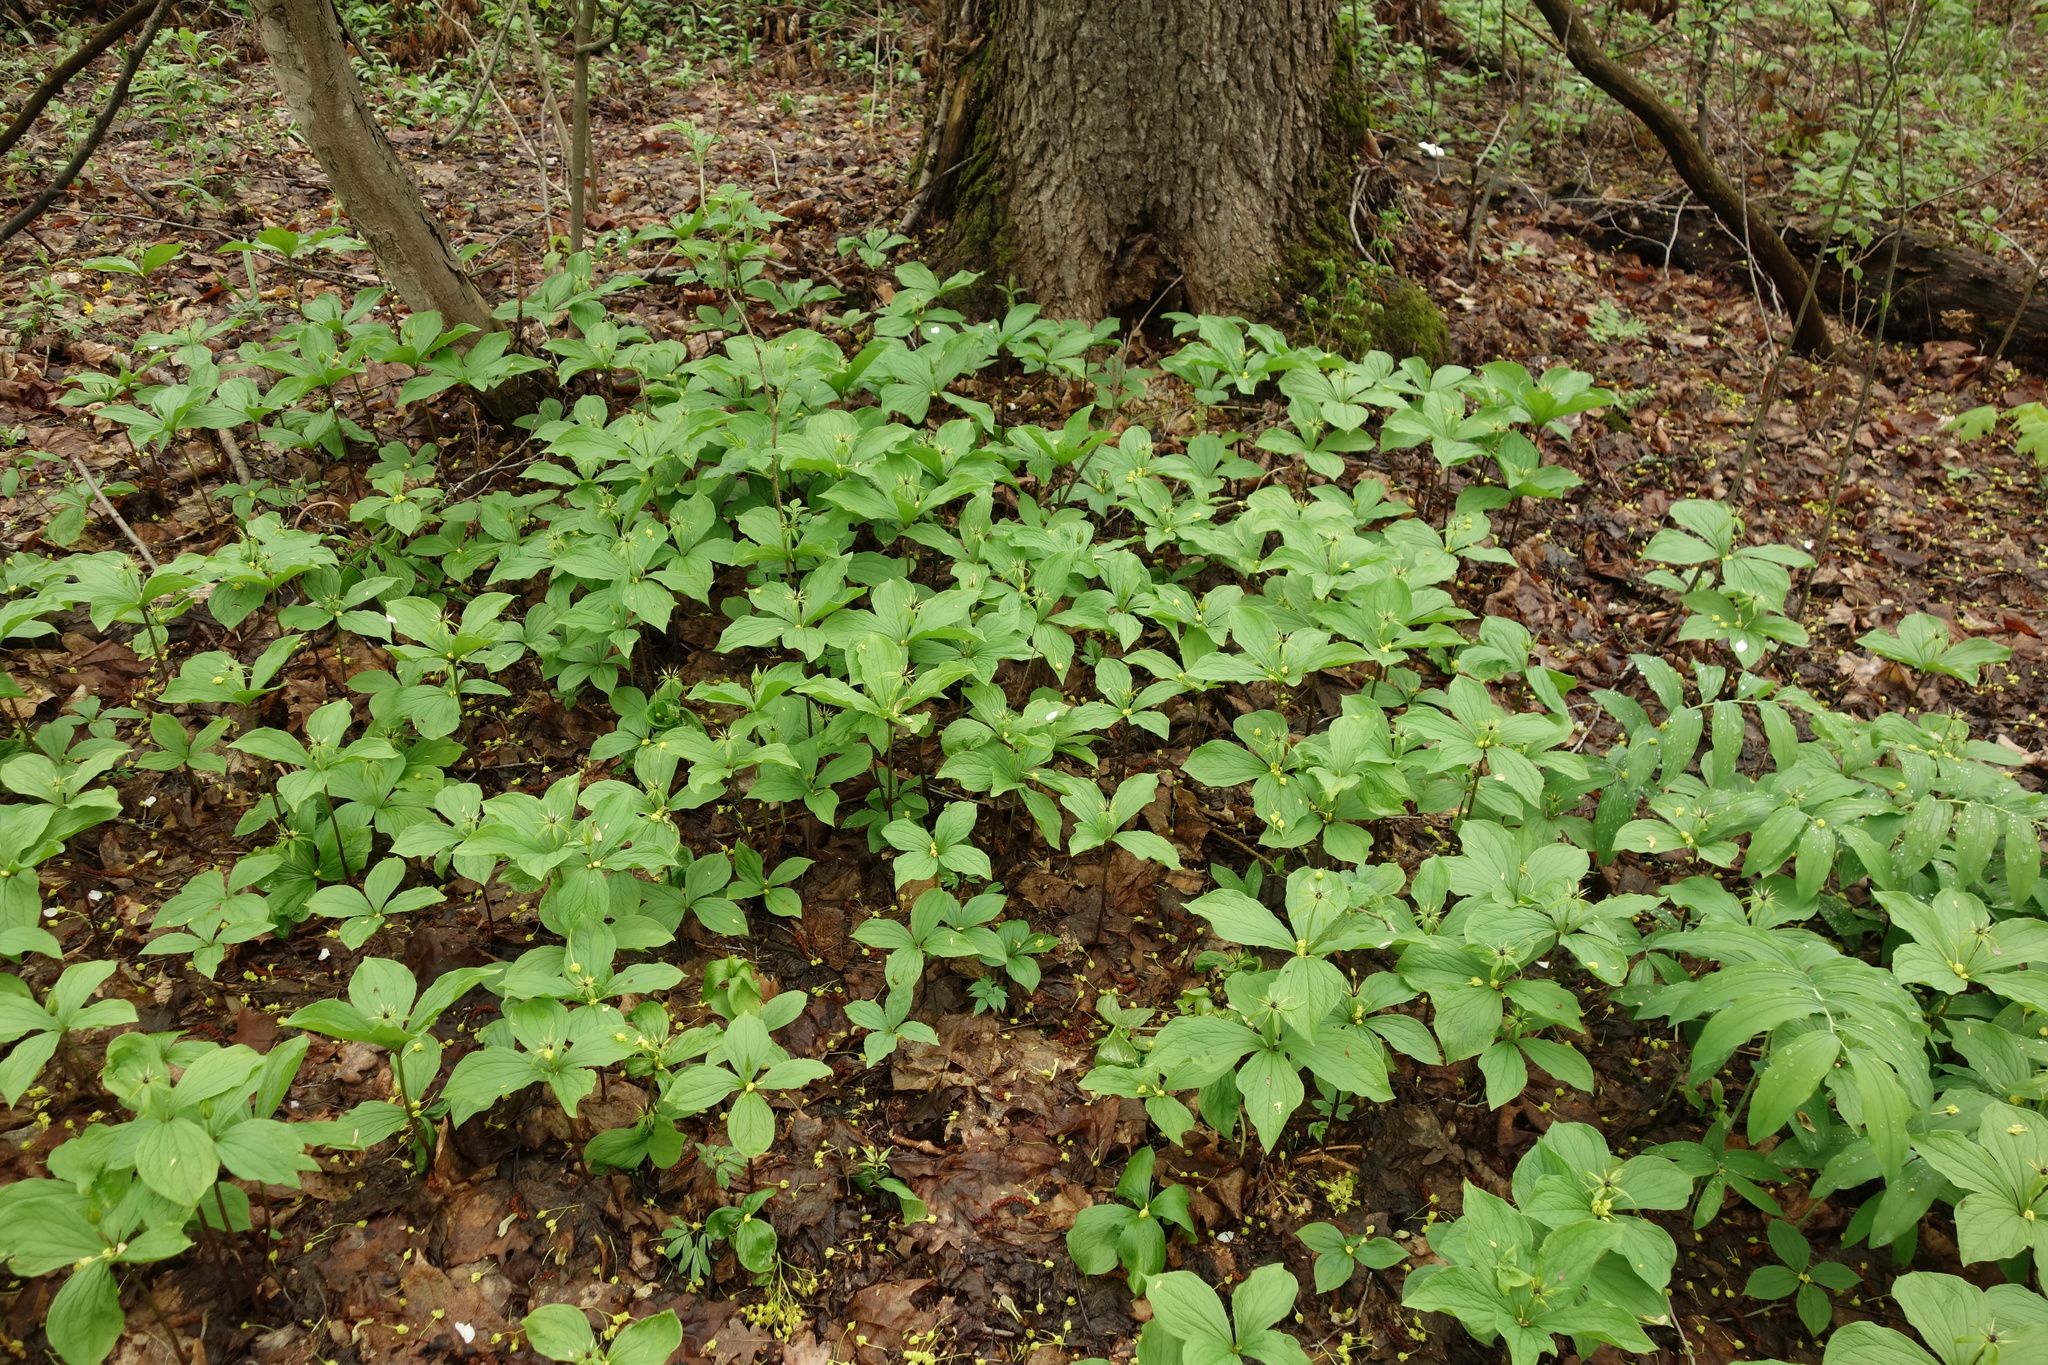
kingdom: Plantae
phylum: Tracheophyta
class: Liliopsida
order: Liliales
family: Melanthiaceae
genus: Paris
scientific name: Paris quadrifolia
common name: Herb-paris
